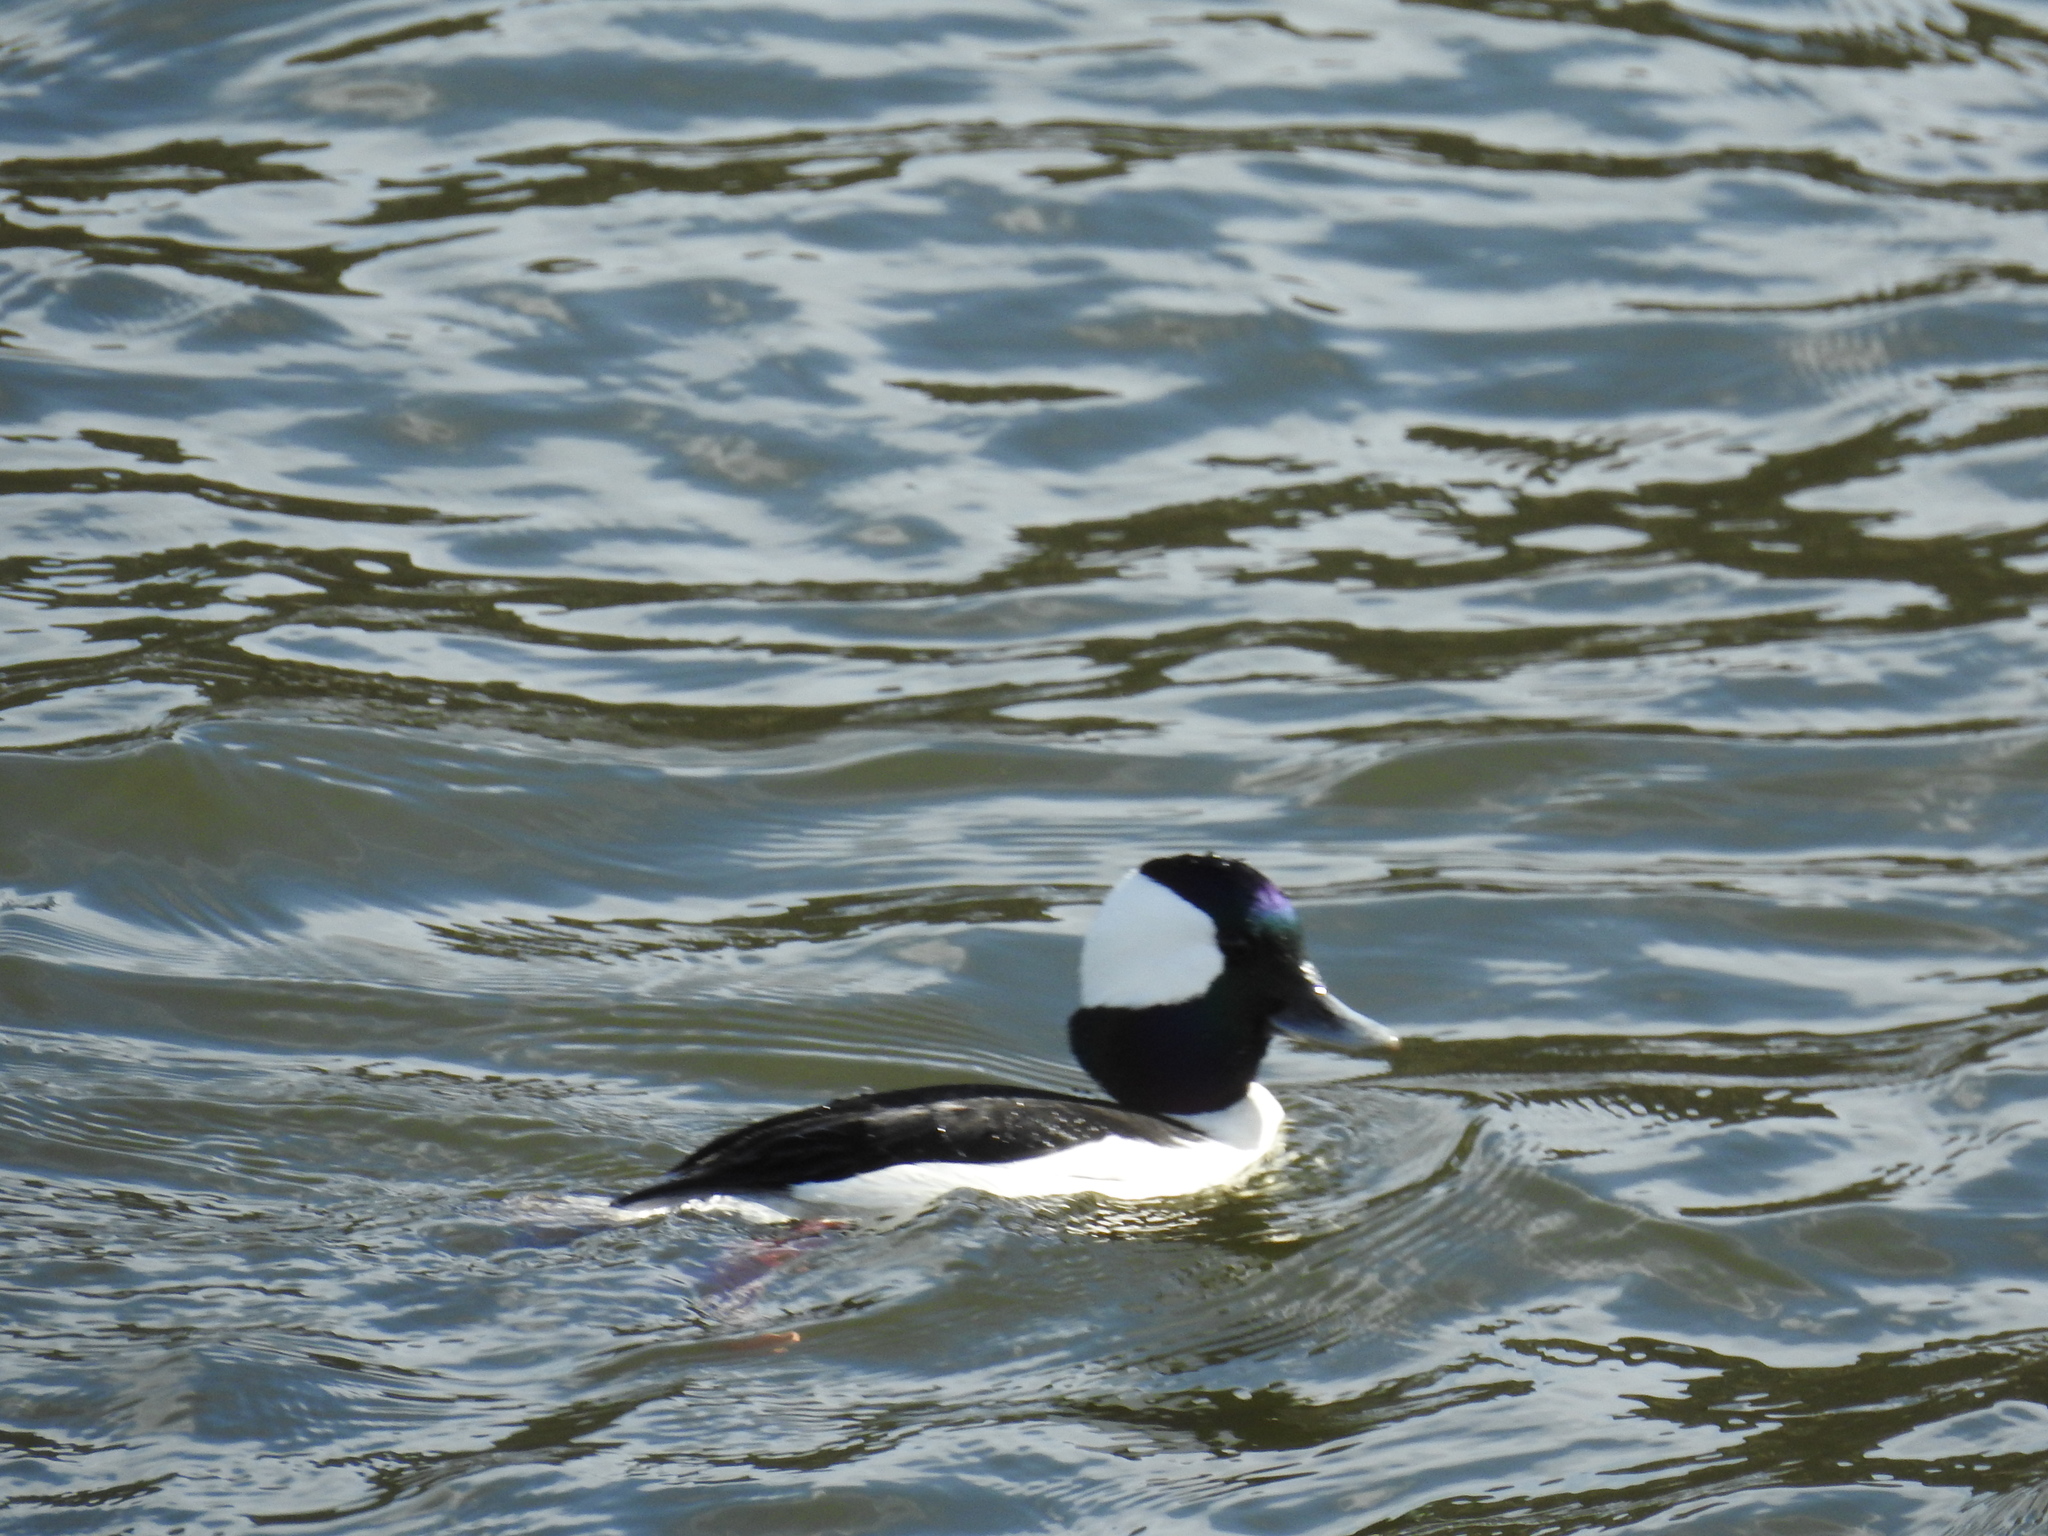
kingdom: Animalia
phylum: Chordata
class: Aves
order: Anseriformes
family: Anatidae
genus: Bucephala
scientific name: Bucephala albeola
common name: Bufflehead
